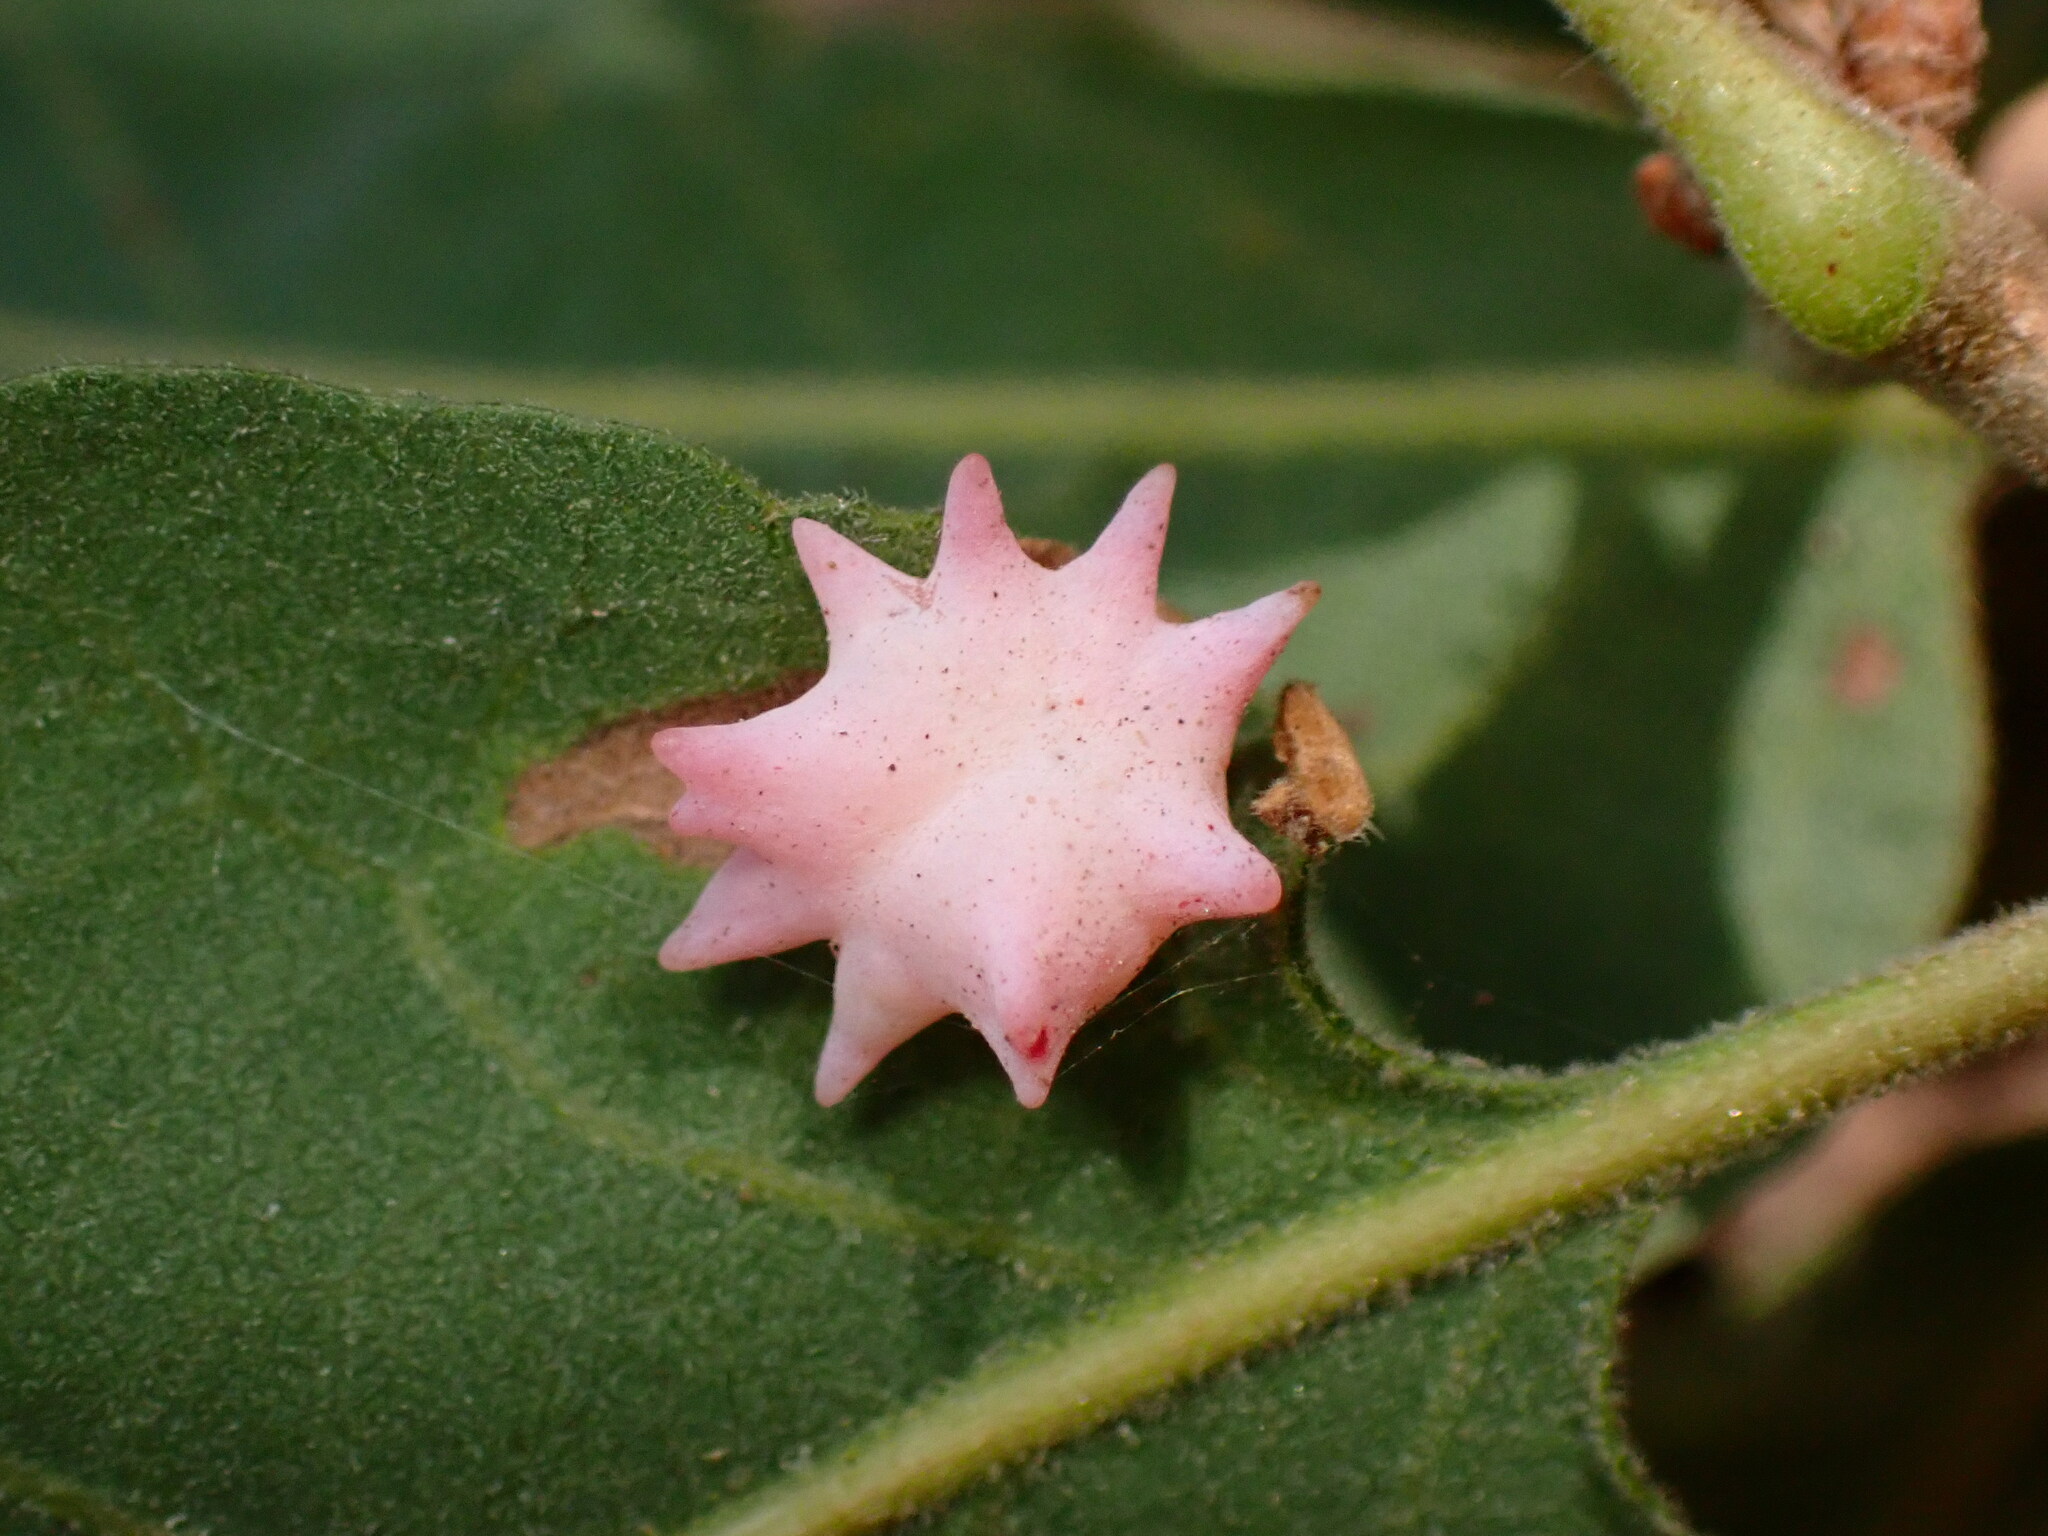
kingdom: Animalia
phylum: Arthropoda
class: Insecta
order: Hymenoptera
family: Cynipidae
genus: Cynips
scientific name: Cynips douglasi
